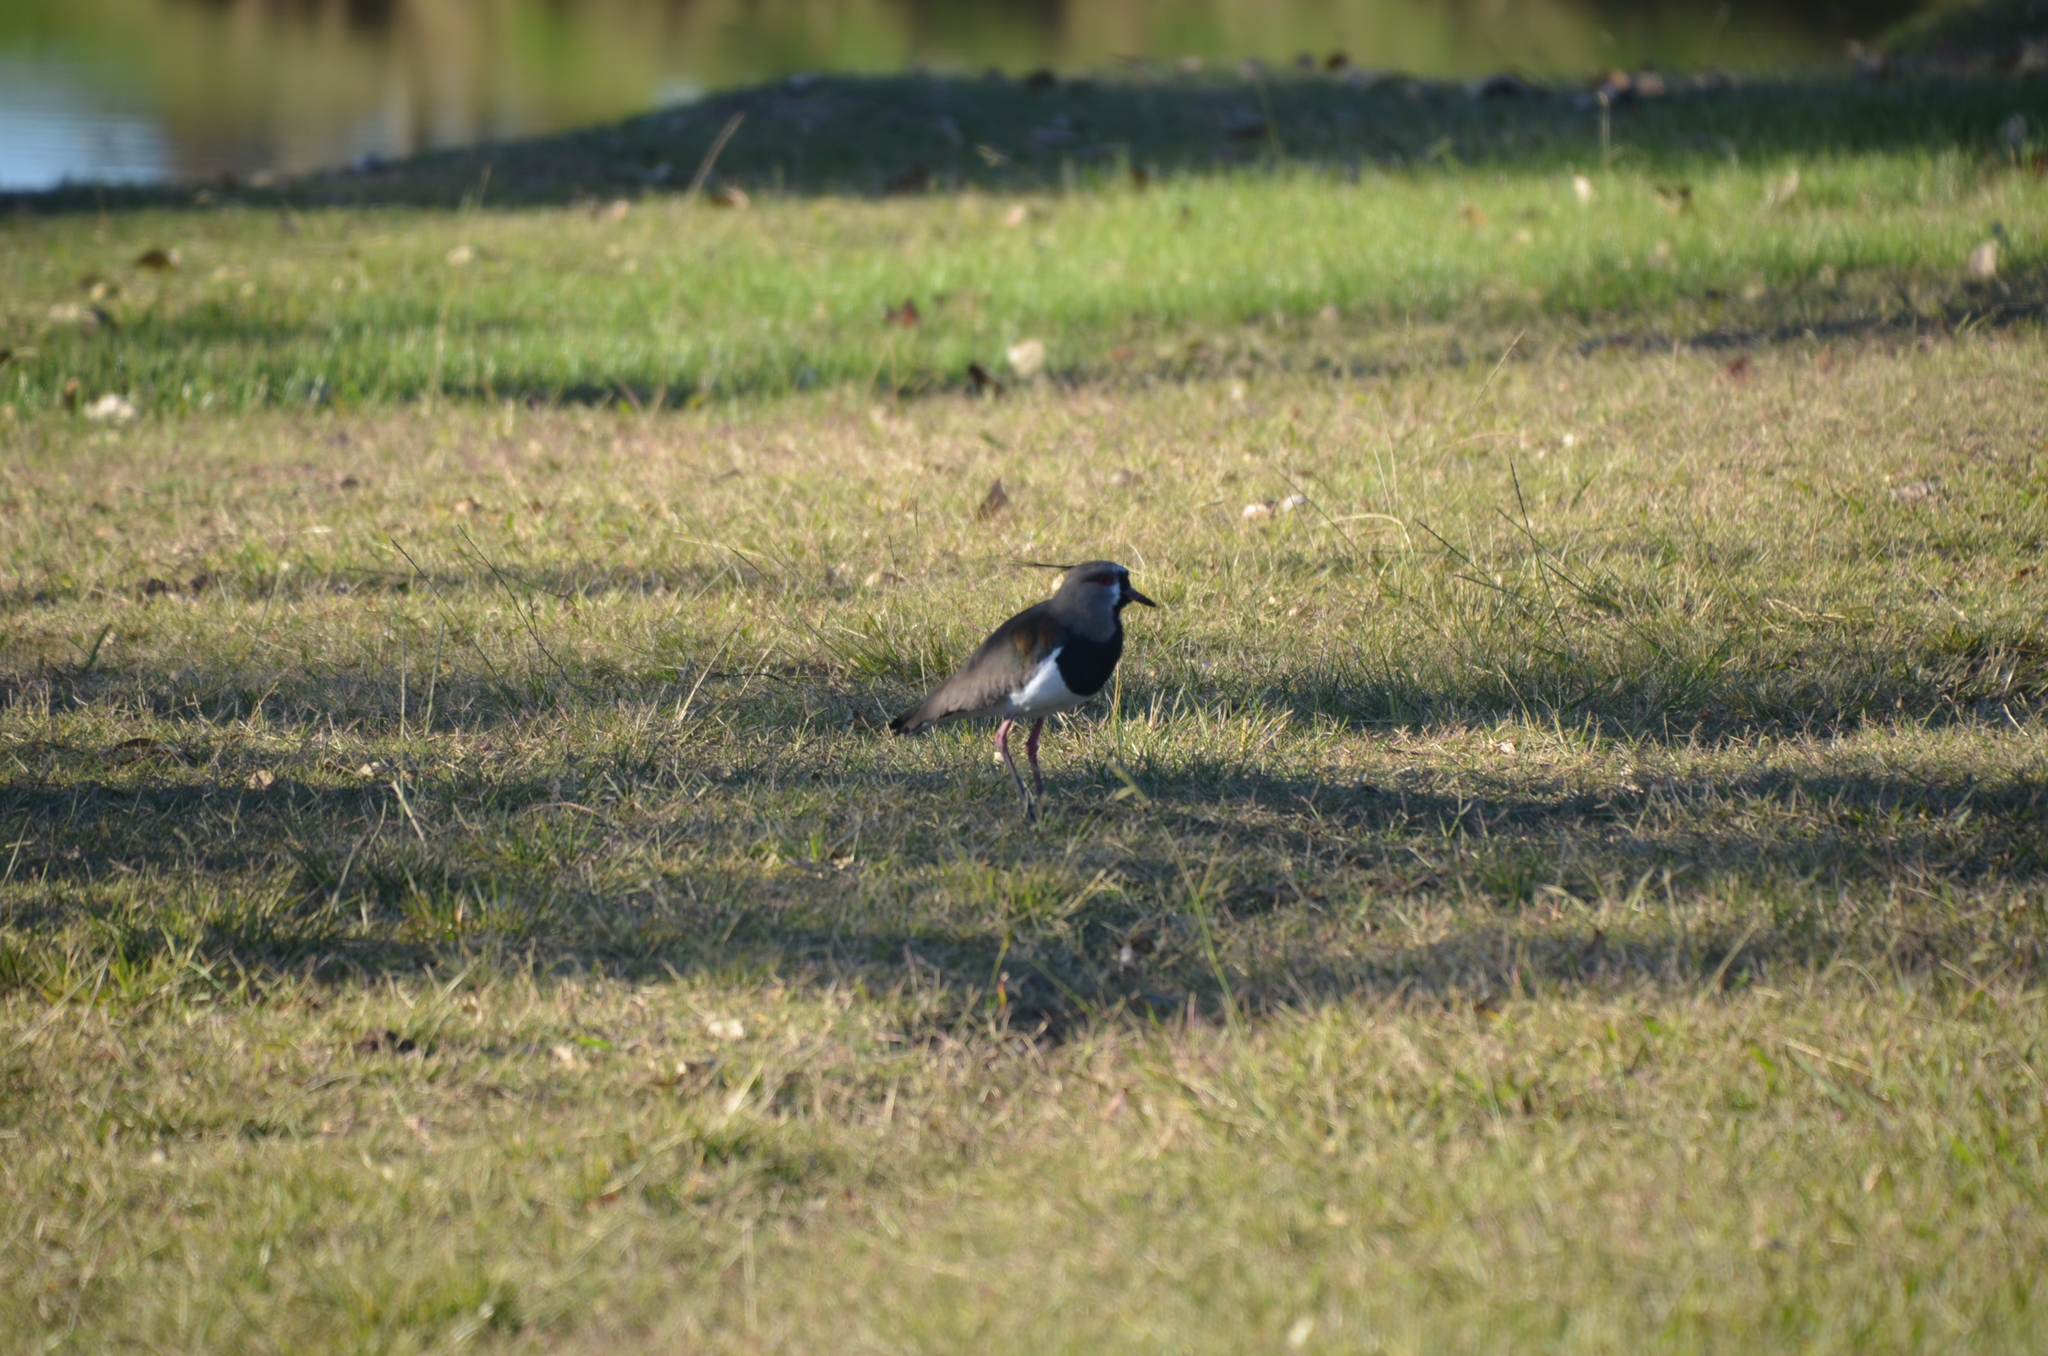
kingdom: Animalia
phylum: Chordata
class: Aves
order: Charadriiformes
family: Charadriidae
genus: Vanellus
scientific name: Vanellus chilensis
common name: Southern lapwing
